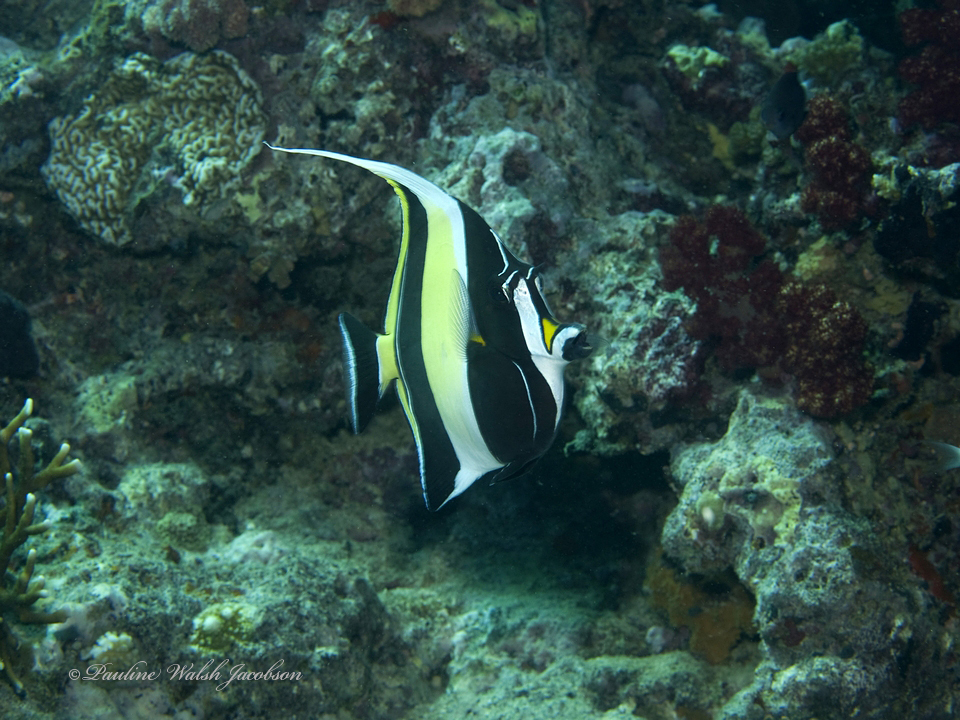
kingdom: Animalia
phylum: Chordata
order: Perciformes
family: Zanclidae
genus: Zanclus
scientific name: Zanclus cornutus
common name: Moorish idol
